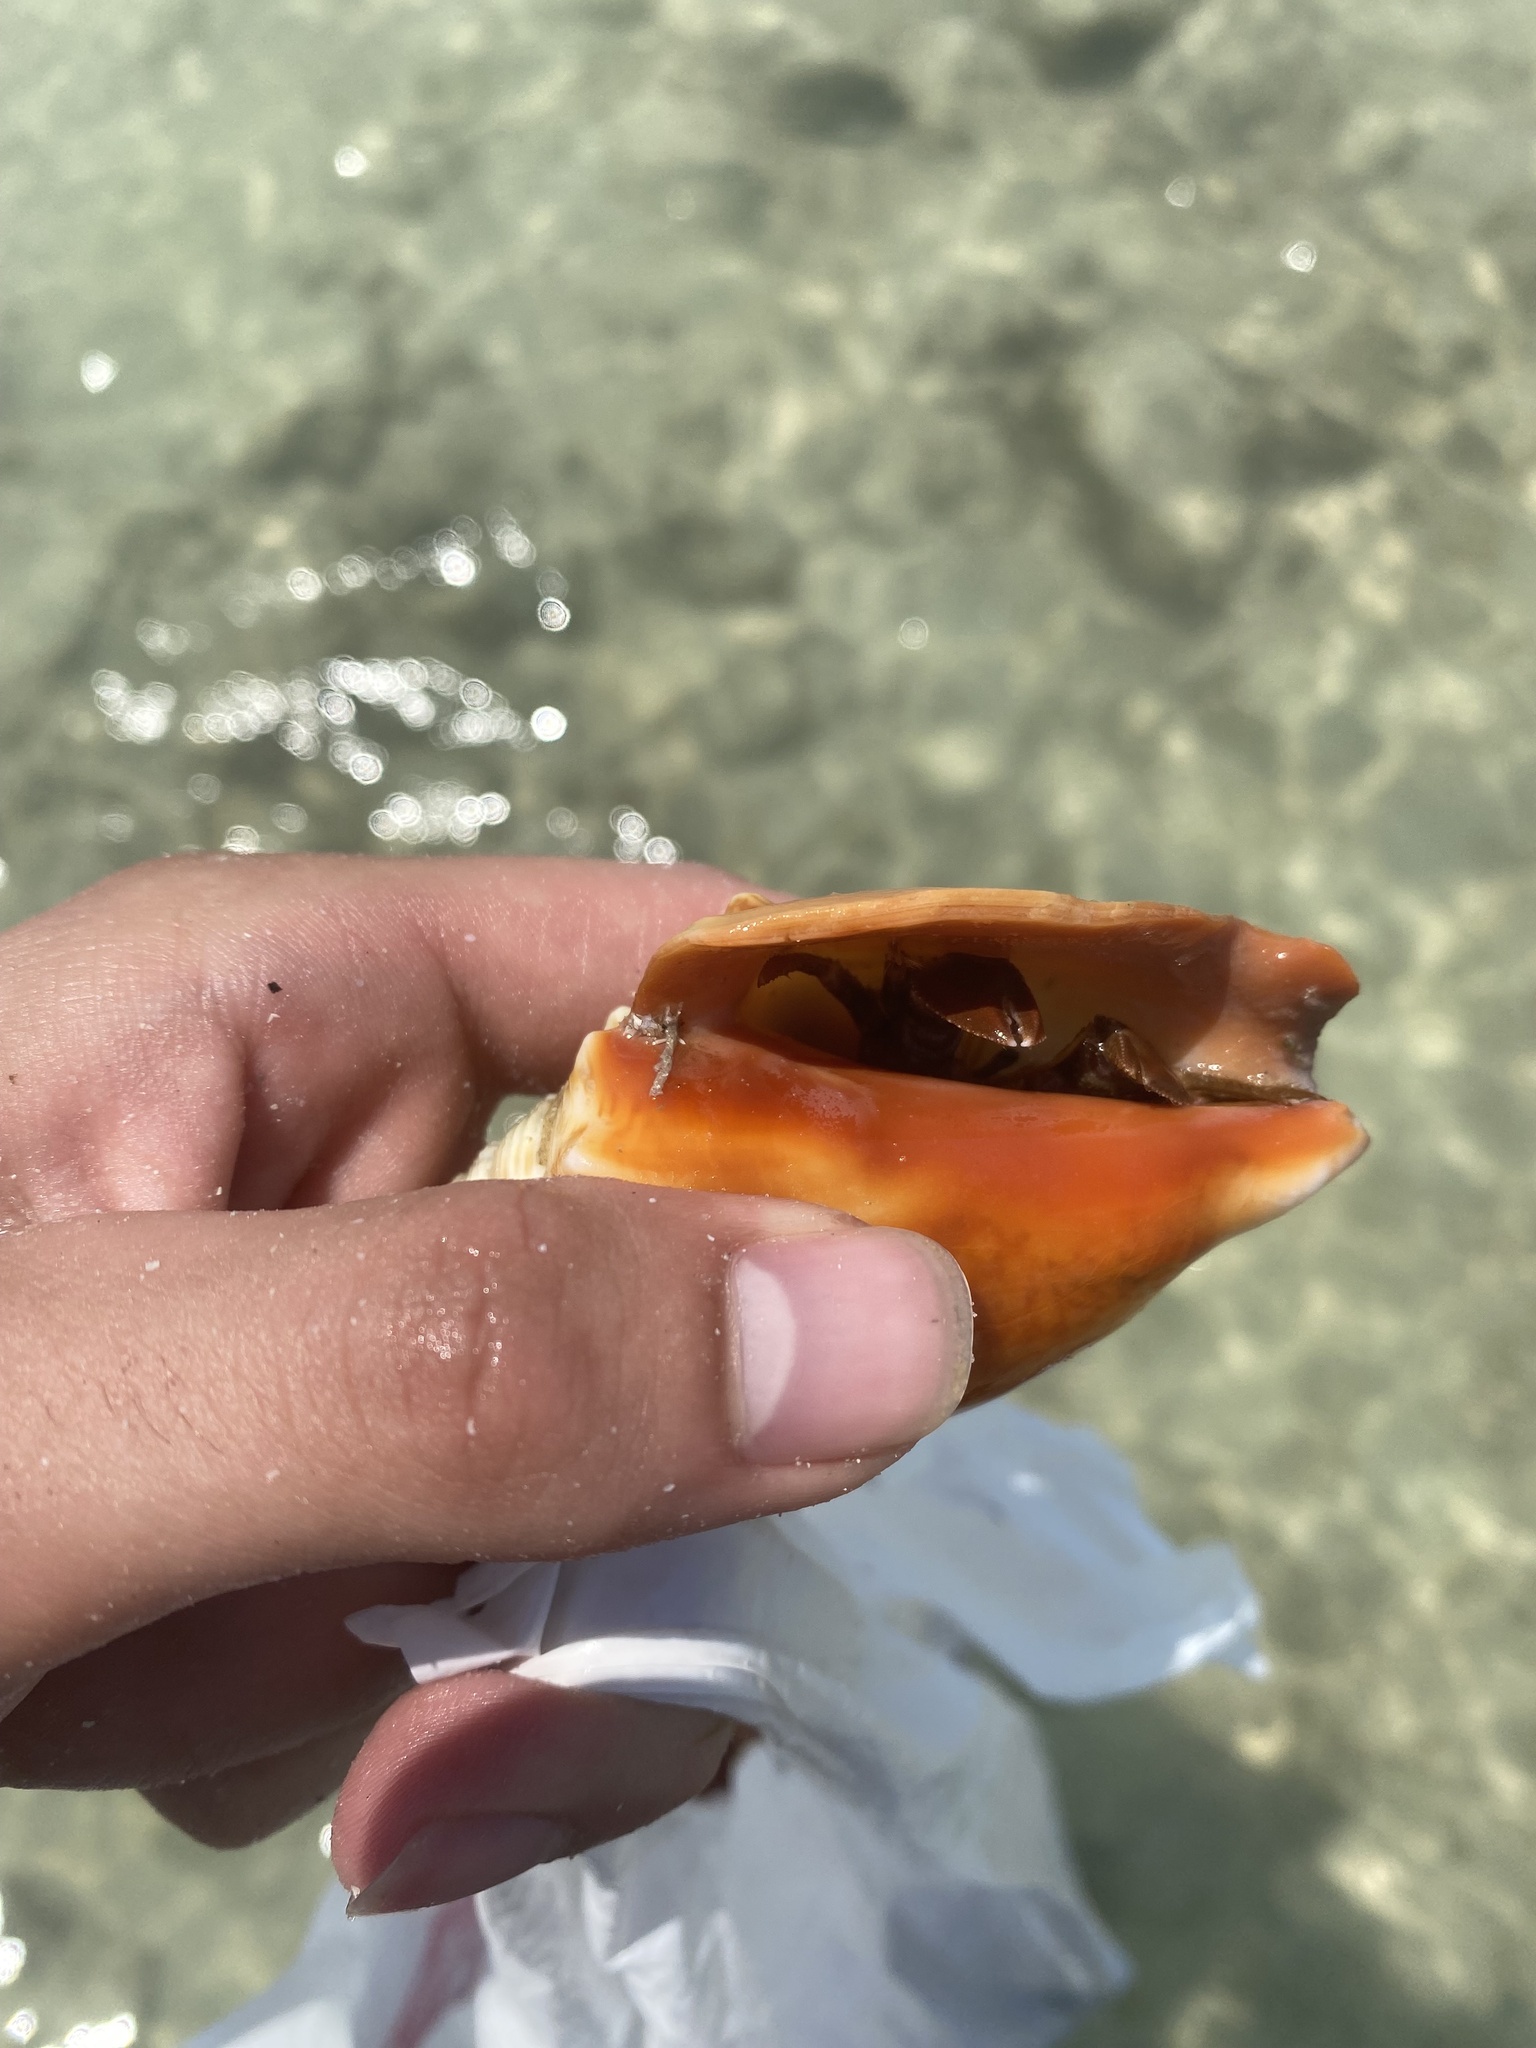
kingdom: Animalia
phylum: Mollusca
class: Gastropoda
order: Littorinimorpha
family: Strombidae
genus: Strombus
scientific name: Strombus alatus
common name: Florida fighting conch
